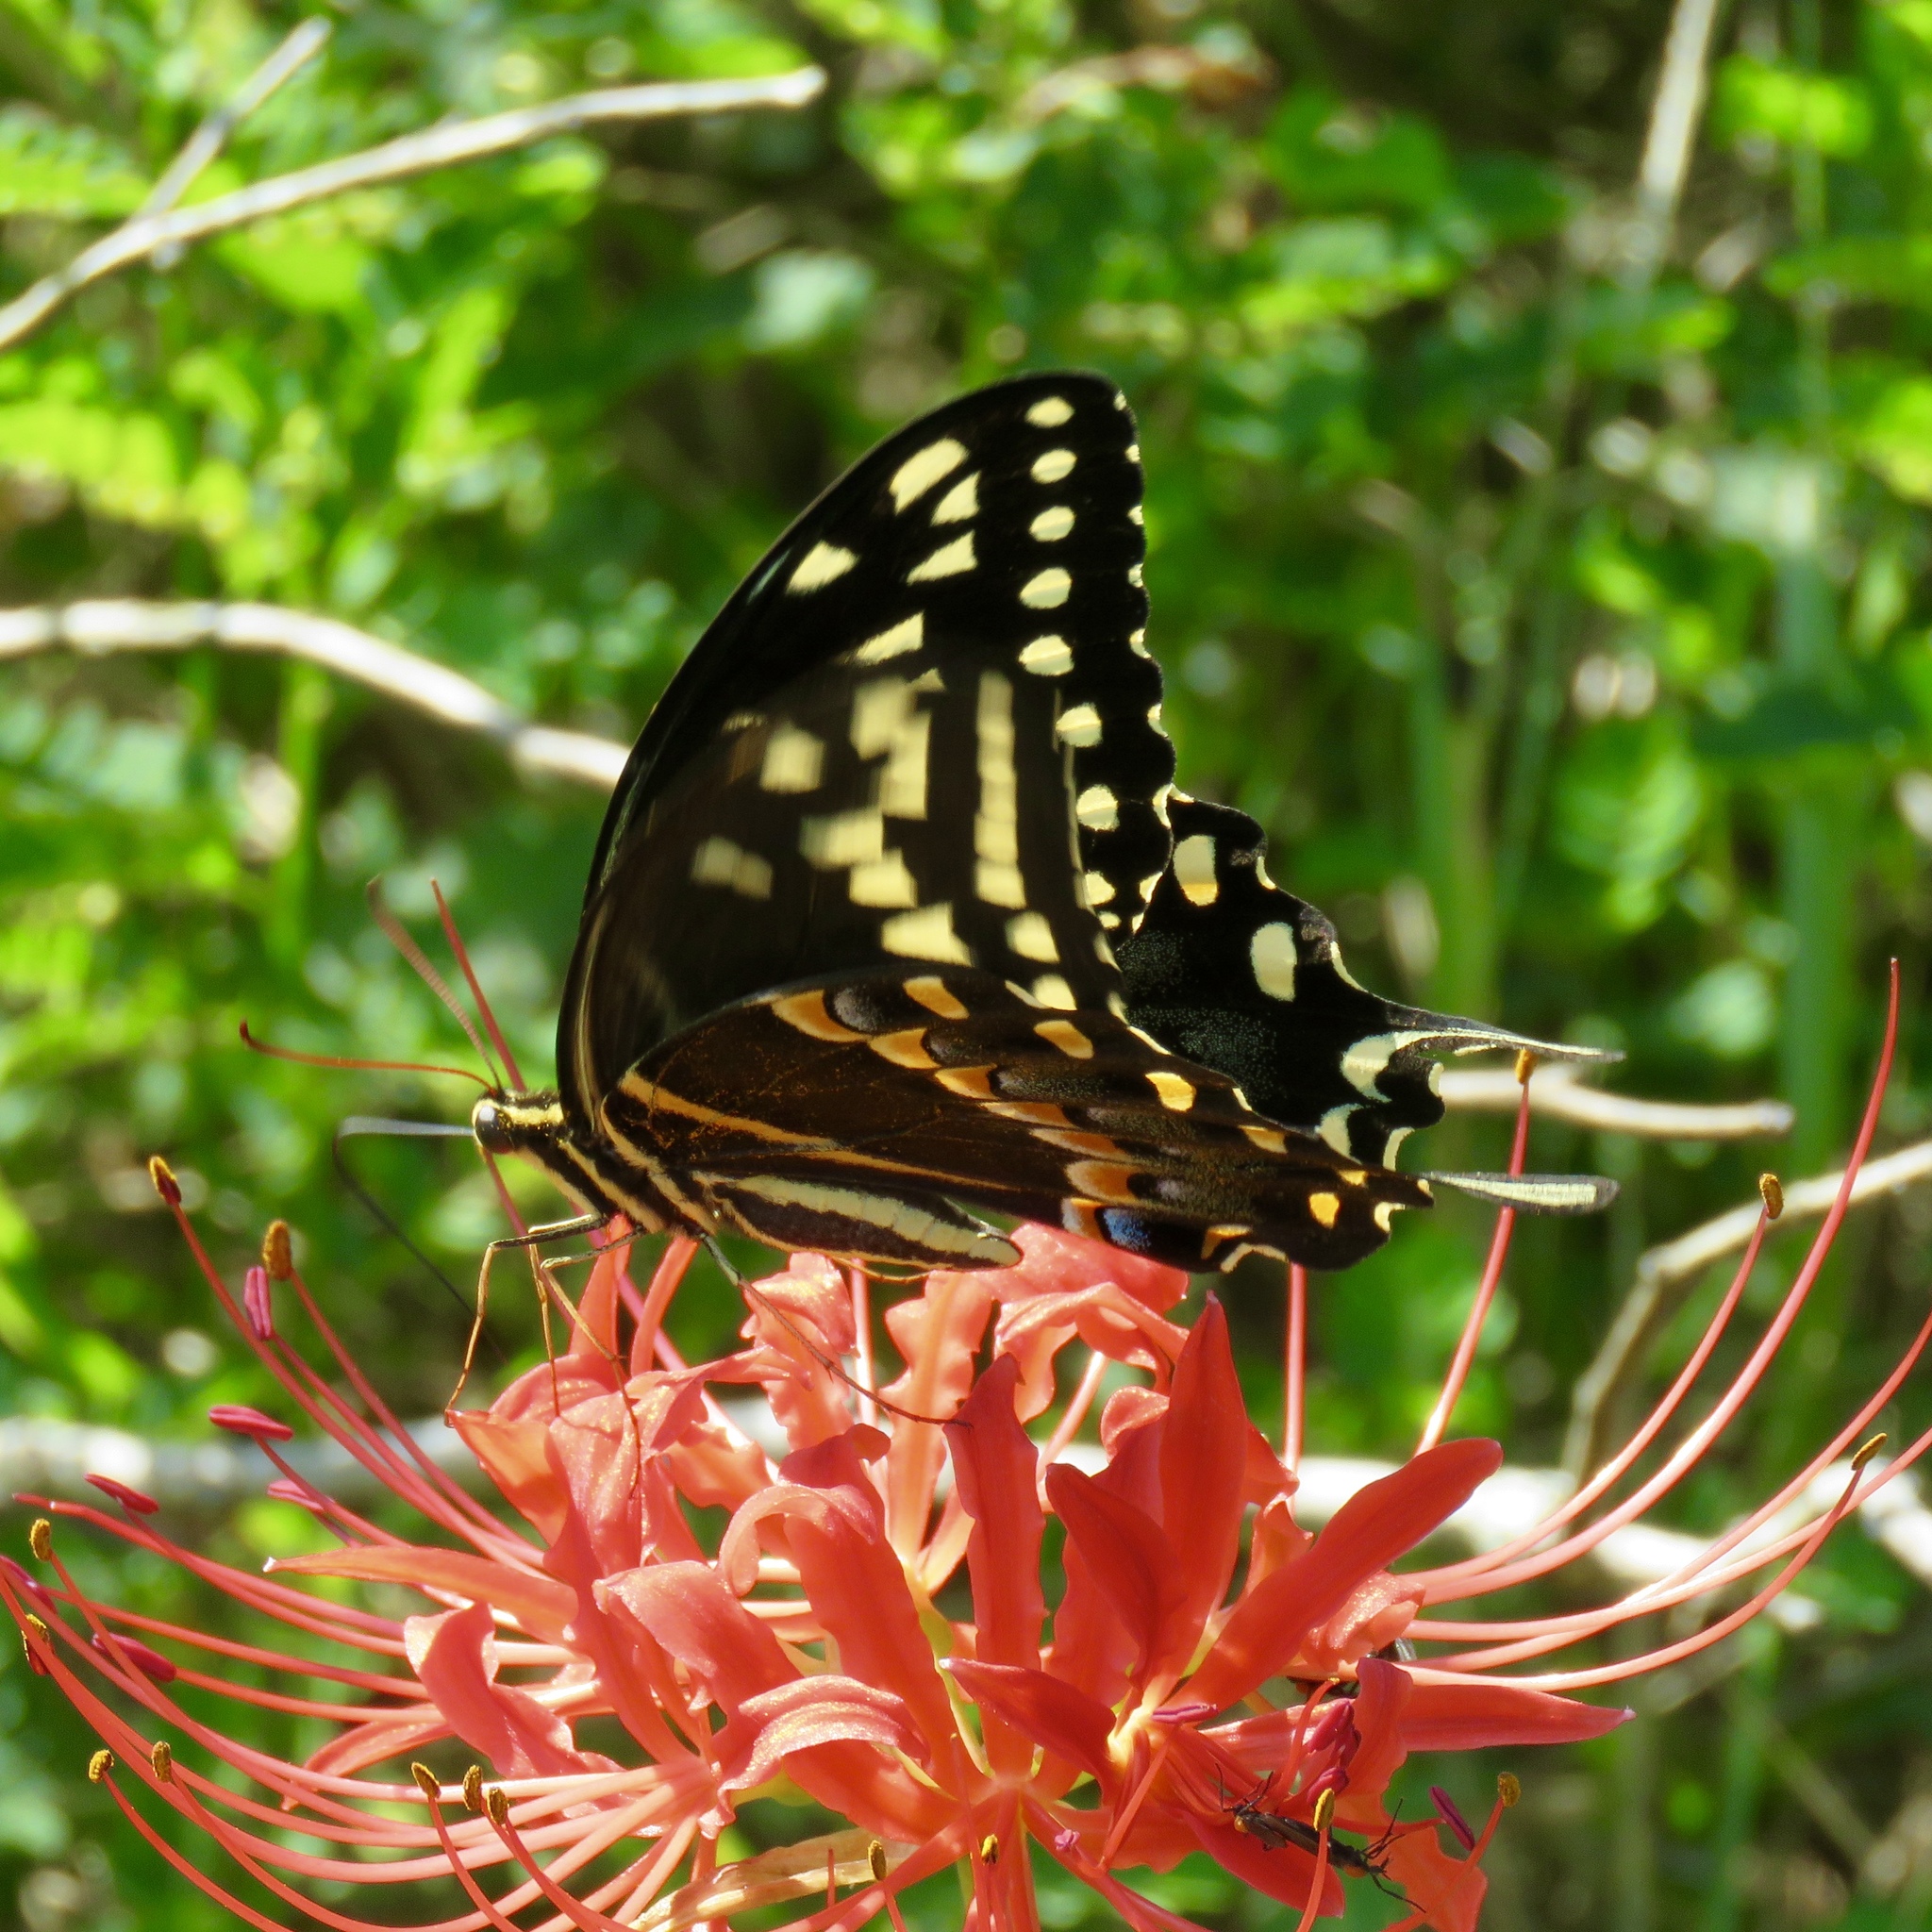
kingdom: Animalia
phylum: Arthropoda
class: Insecta
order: Lepidoptera
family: Papilionidae
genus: Papilio
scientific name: Papilio palamedes
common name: Palamedes swallowtail
